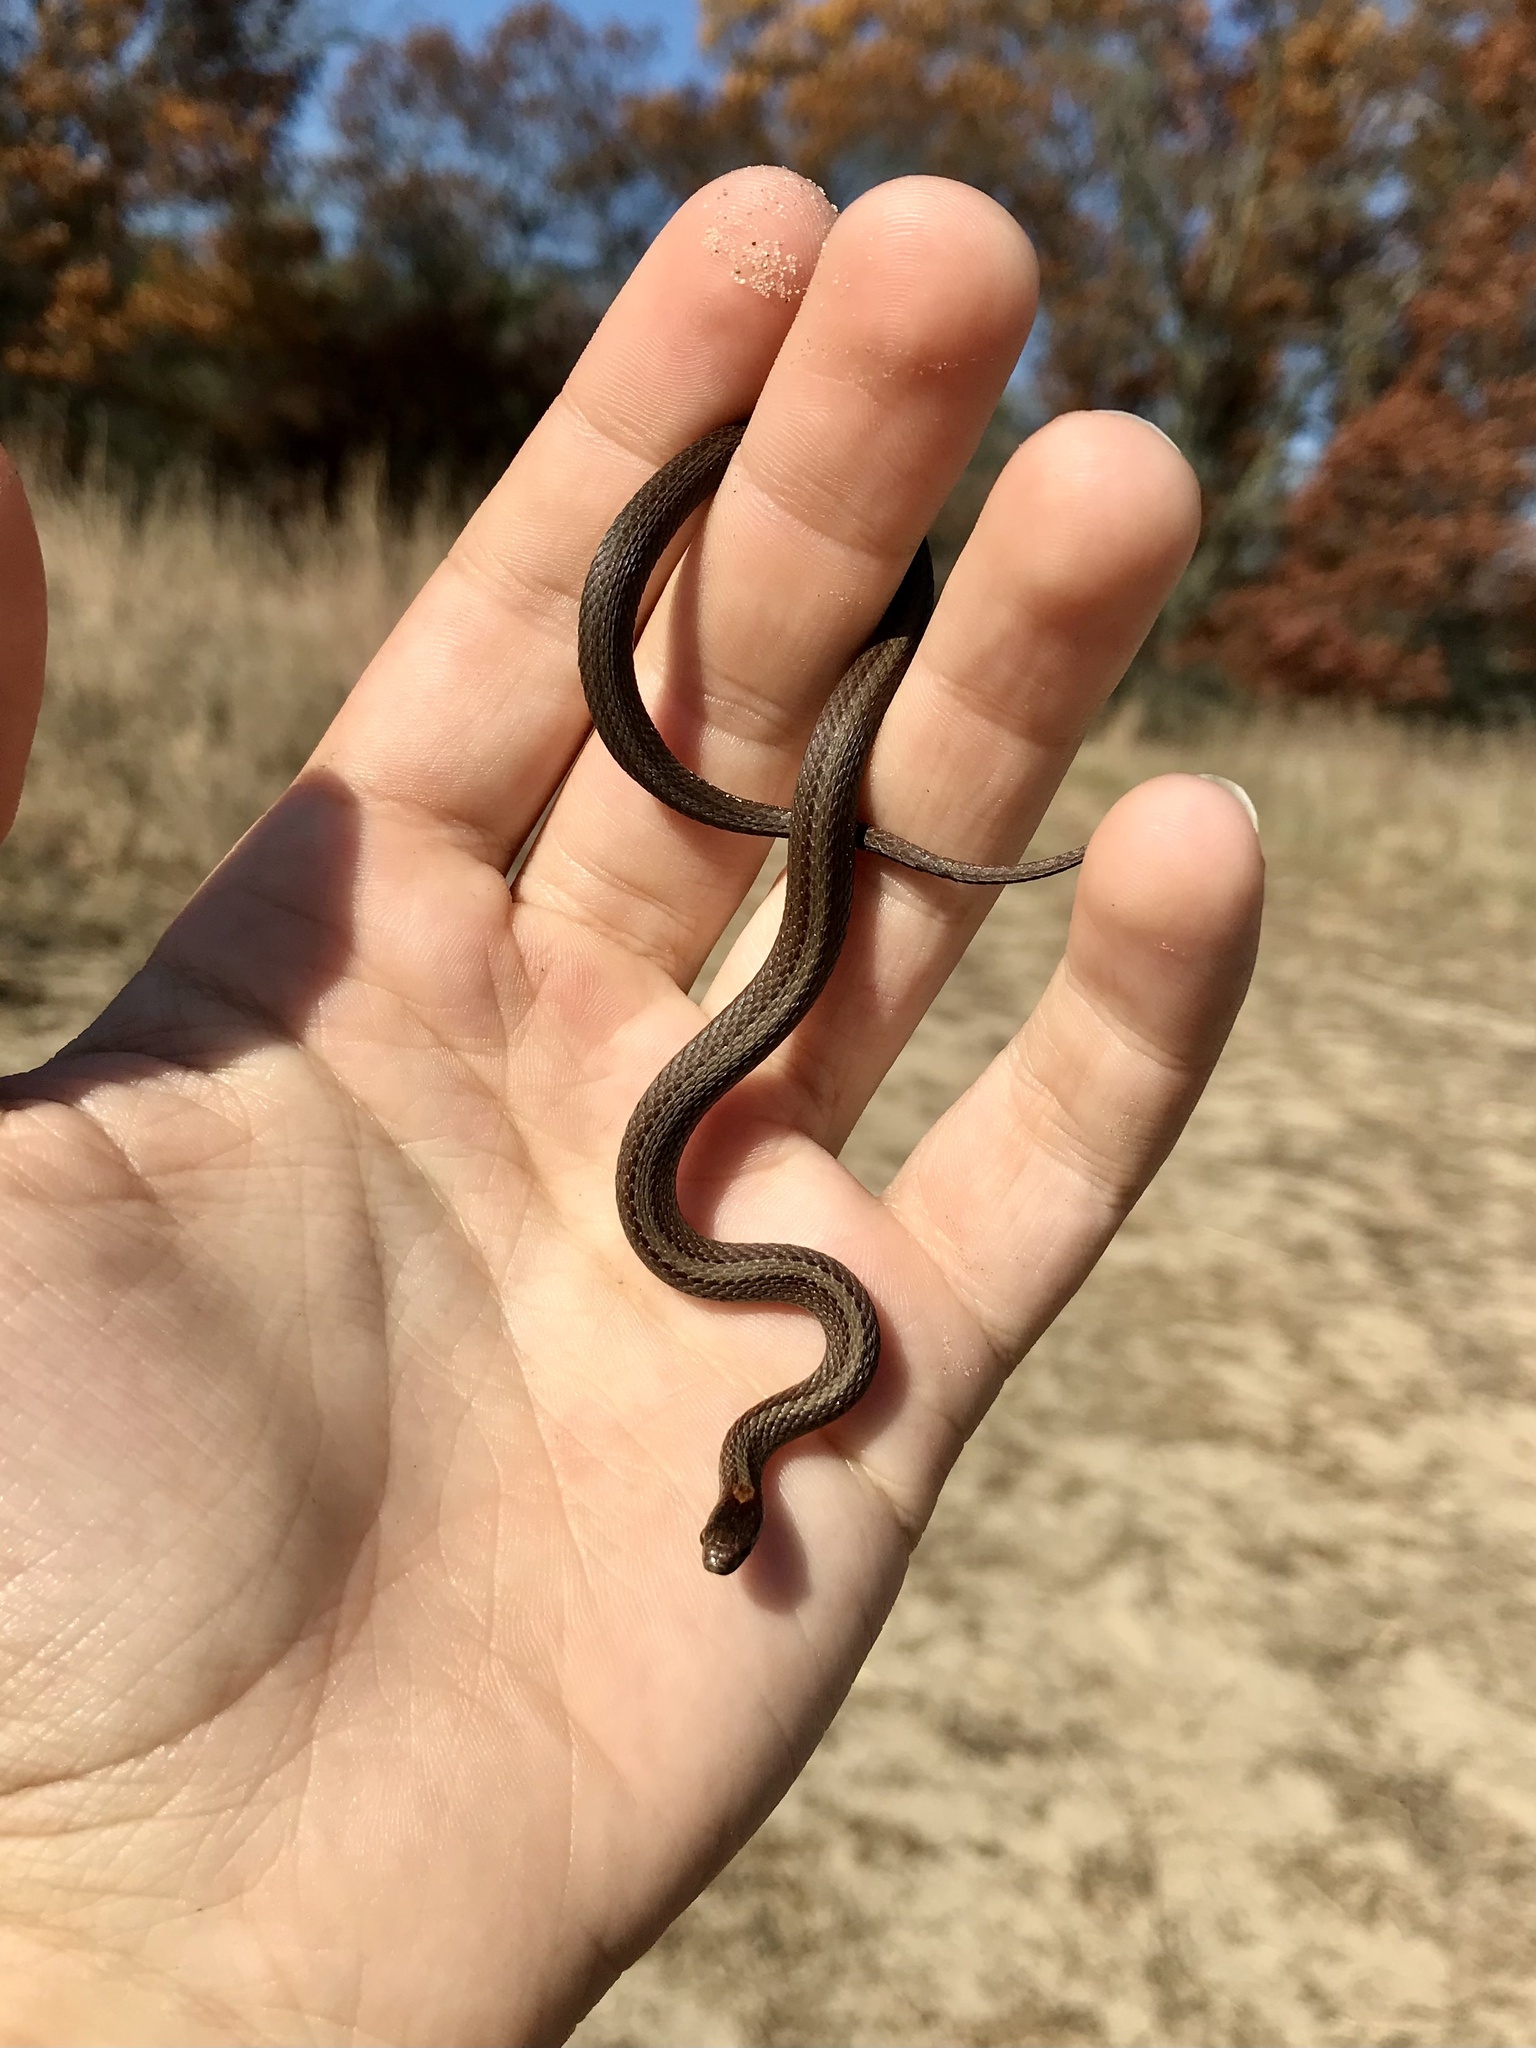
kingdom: Animalia
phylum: Chordata
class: Squamata
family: Colubridae
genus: Storeria
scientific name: Storeria occipitomaculata
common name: Redbelly snake
